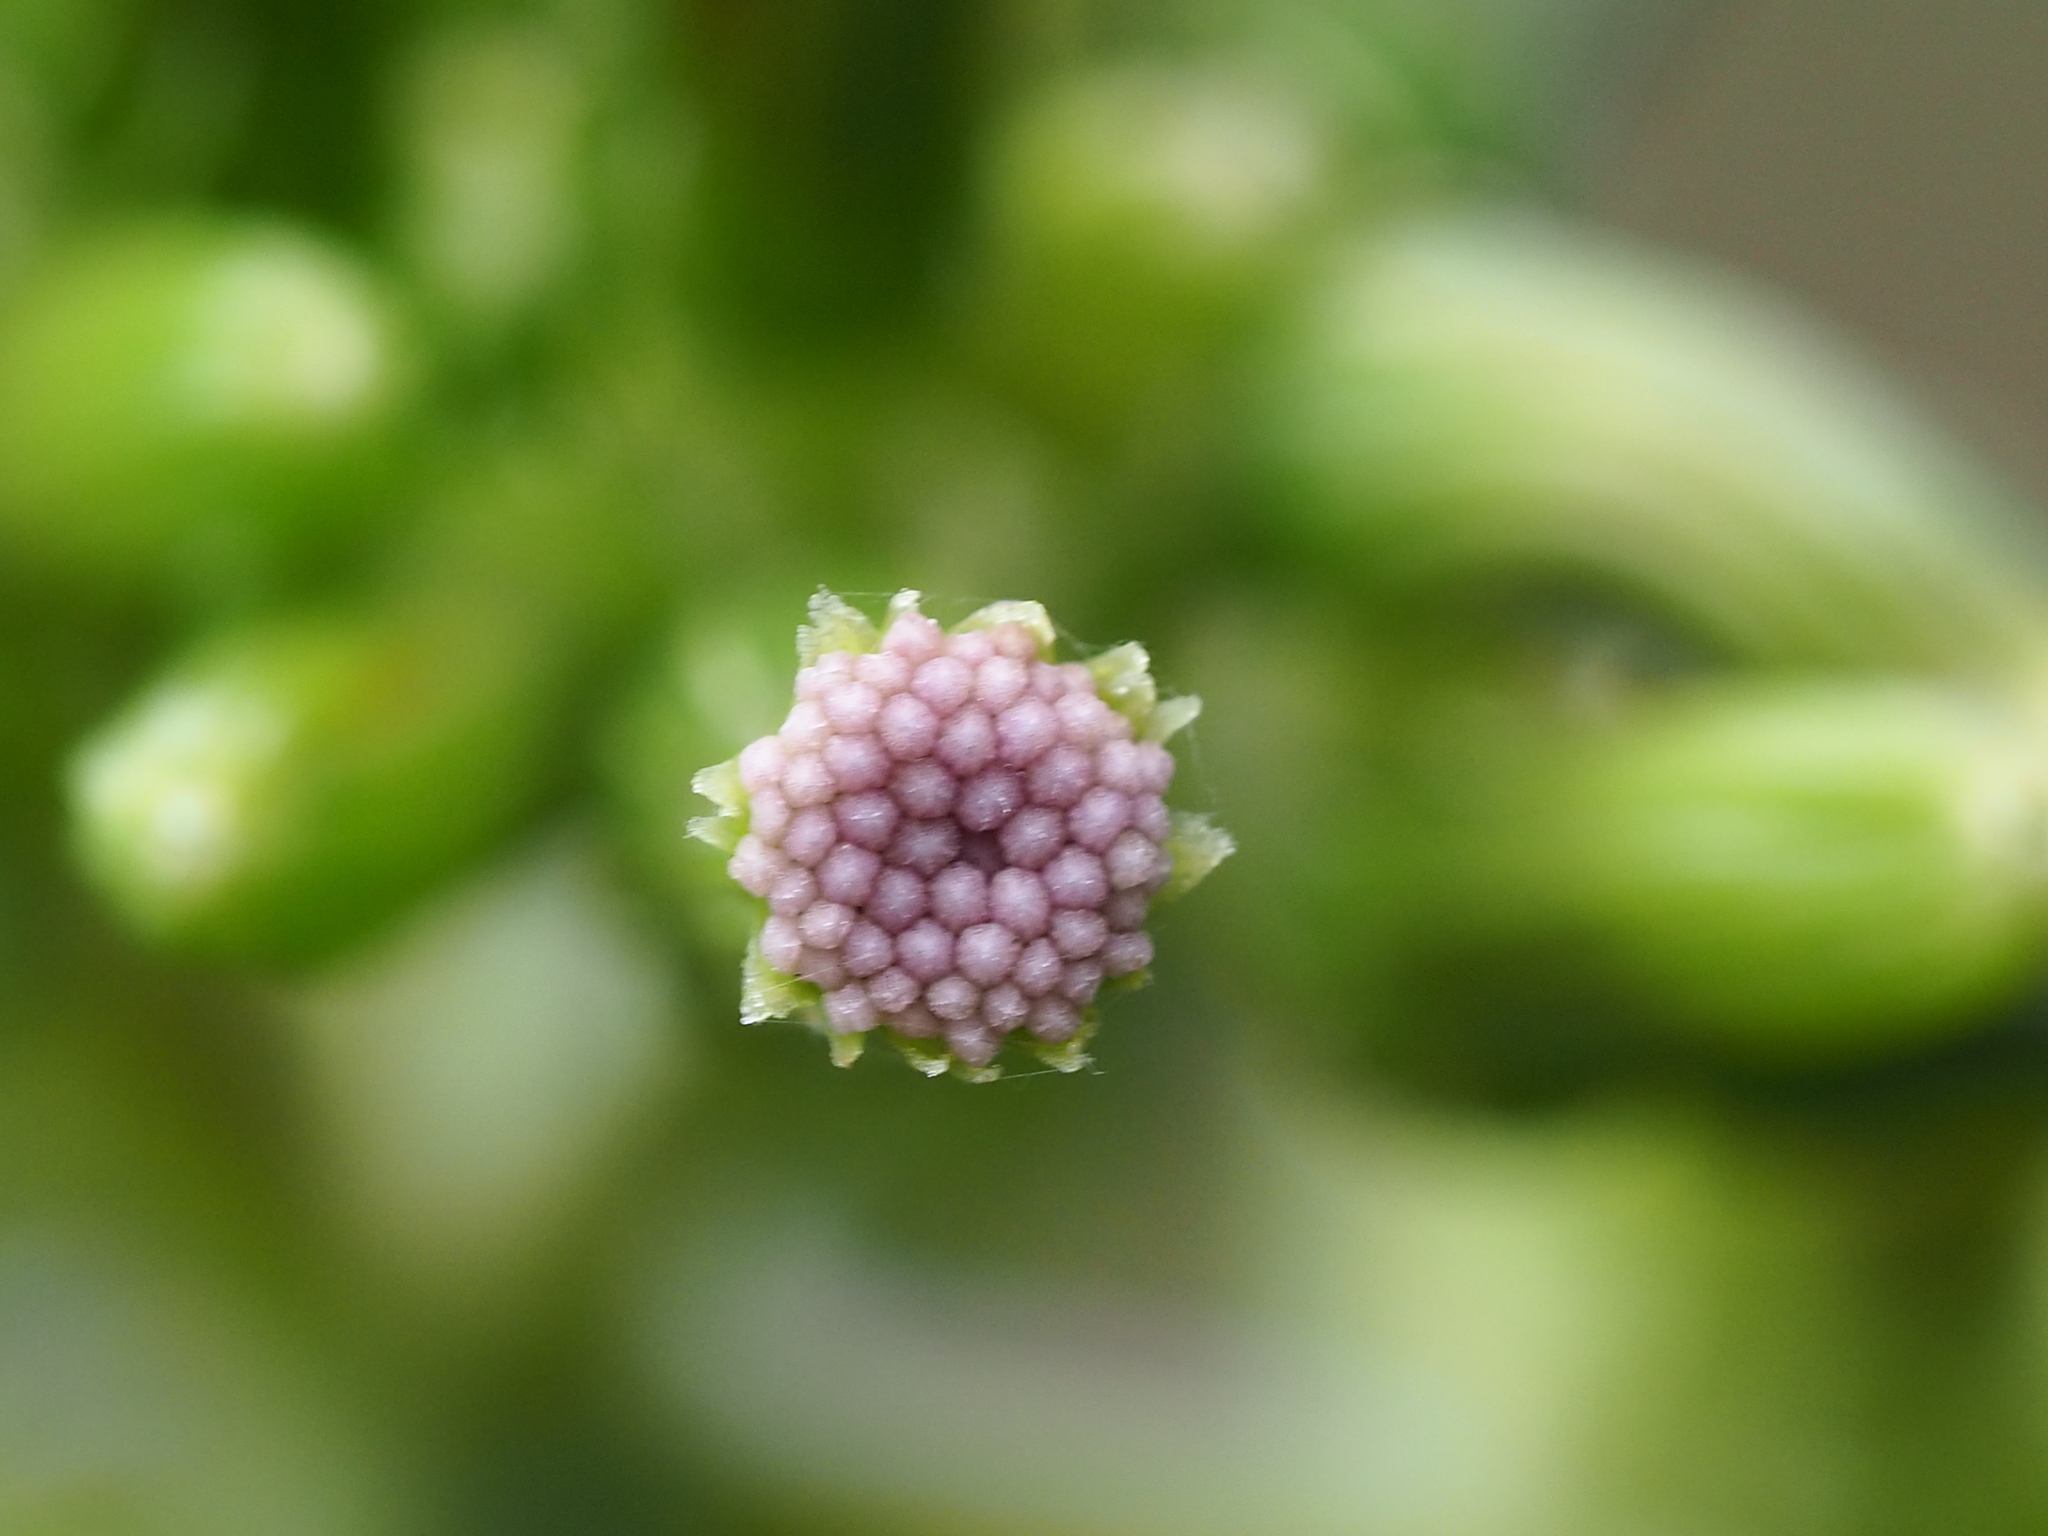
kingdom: Plantae
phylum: Tracheophyta
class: Magnoliopsida
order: Asterales
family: Asteraceae
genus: Erechtites
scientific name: Erechtites valerianifolius
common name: Tropical burnweed
